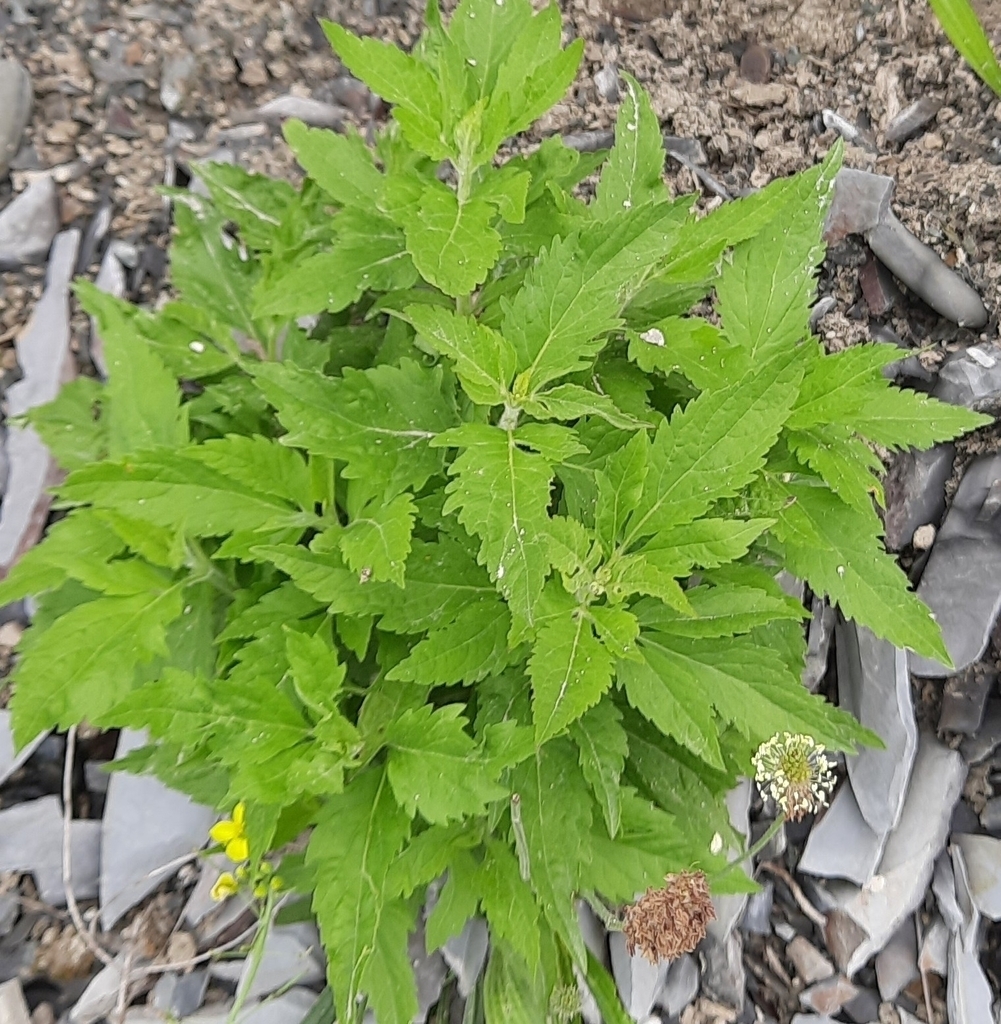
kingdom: Plantae
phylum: Tracheophyta
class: Magnoliopsida
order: Asterales
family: Asteraceae
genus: Eupatorium
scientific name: Eupatorium cannabinum
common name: Hemp-agrimony
